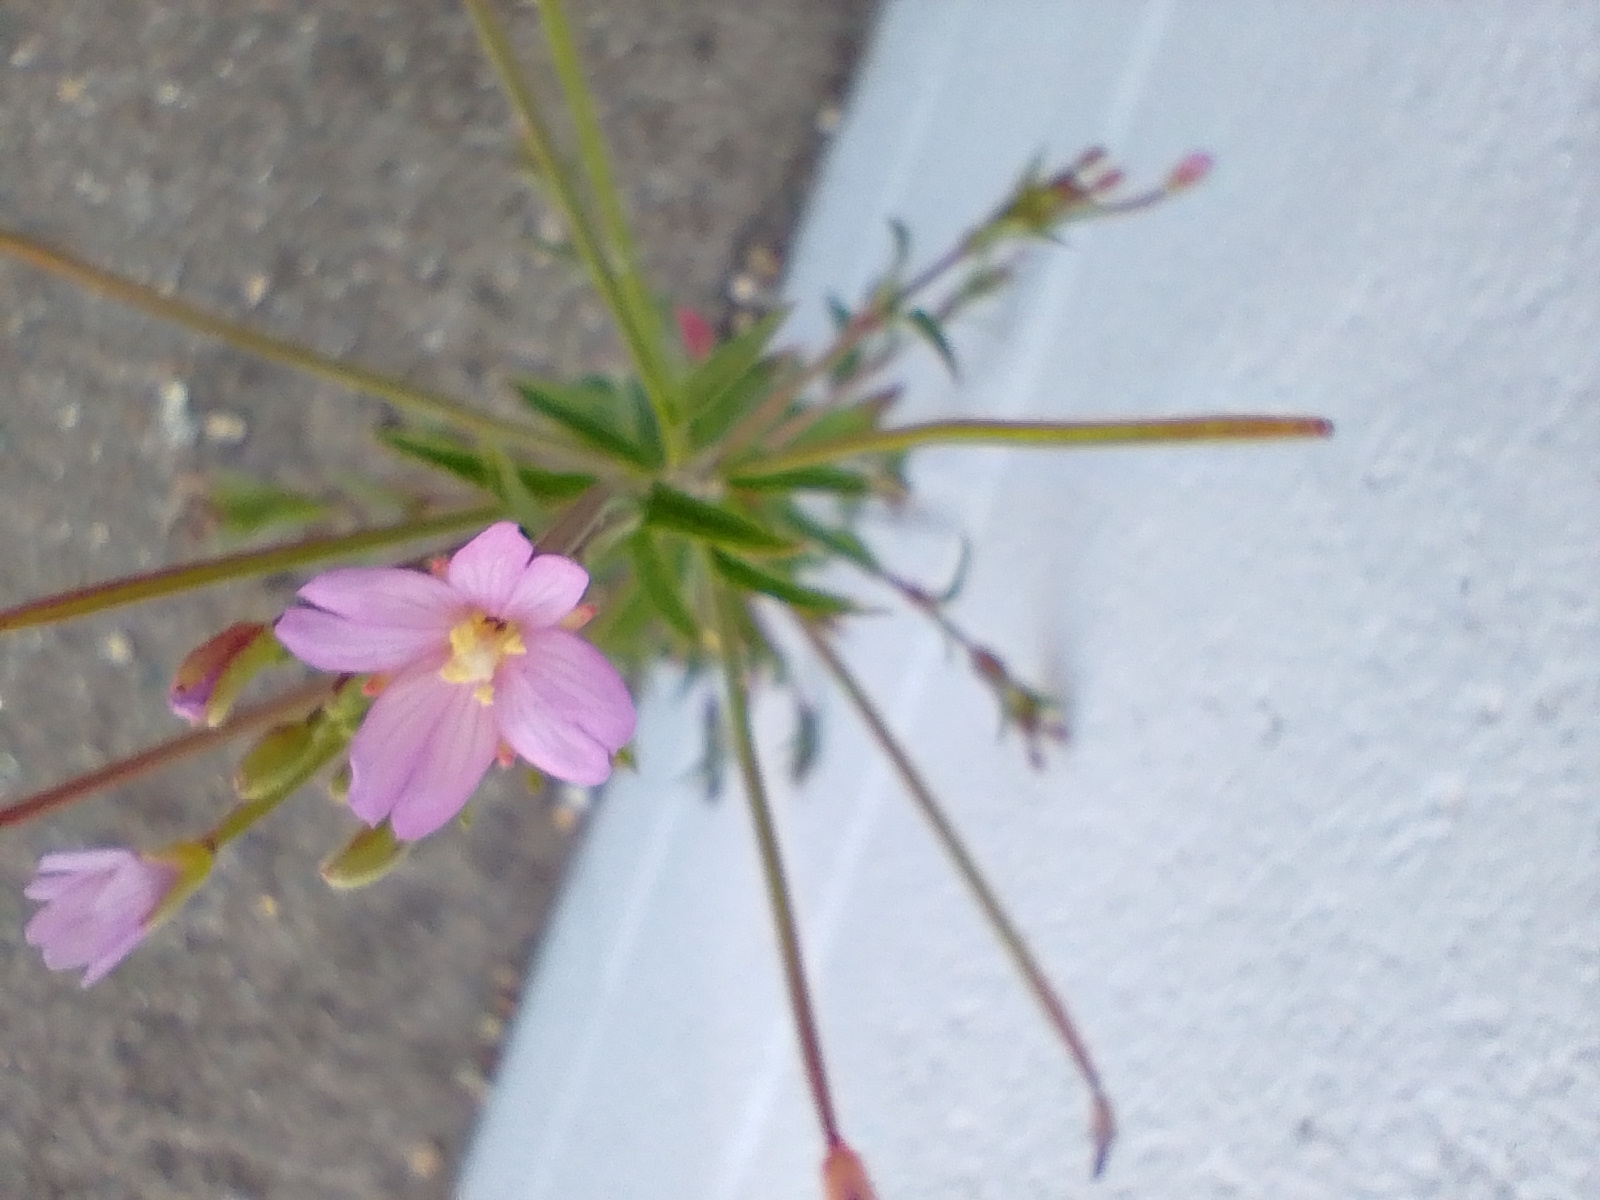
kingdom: Plantae
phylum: Tracheophyta
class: Magnoliopsida
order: Myrtales
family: Onagraceae
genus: Epilobium
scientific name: Epilobium parviflorum
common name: Hoary willowherb
